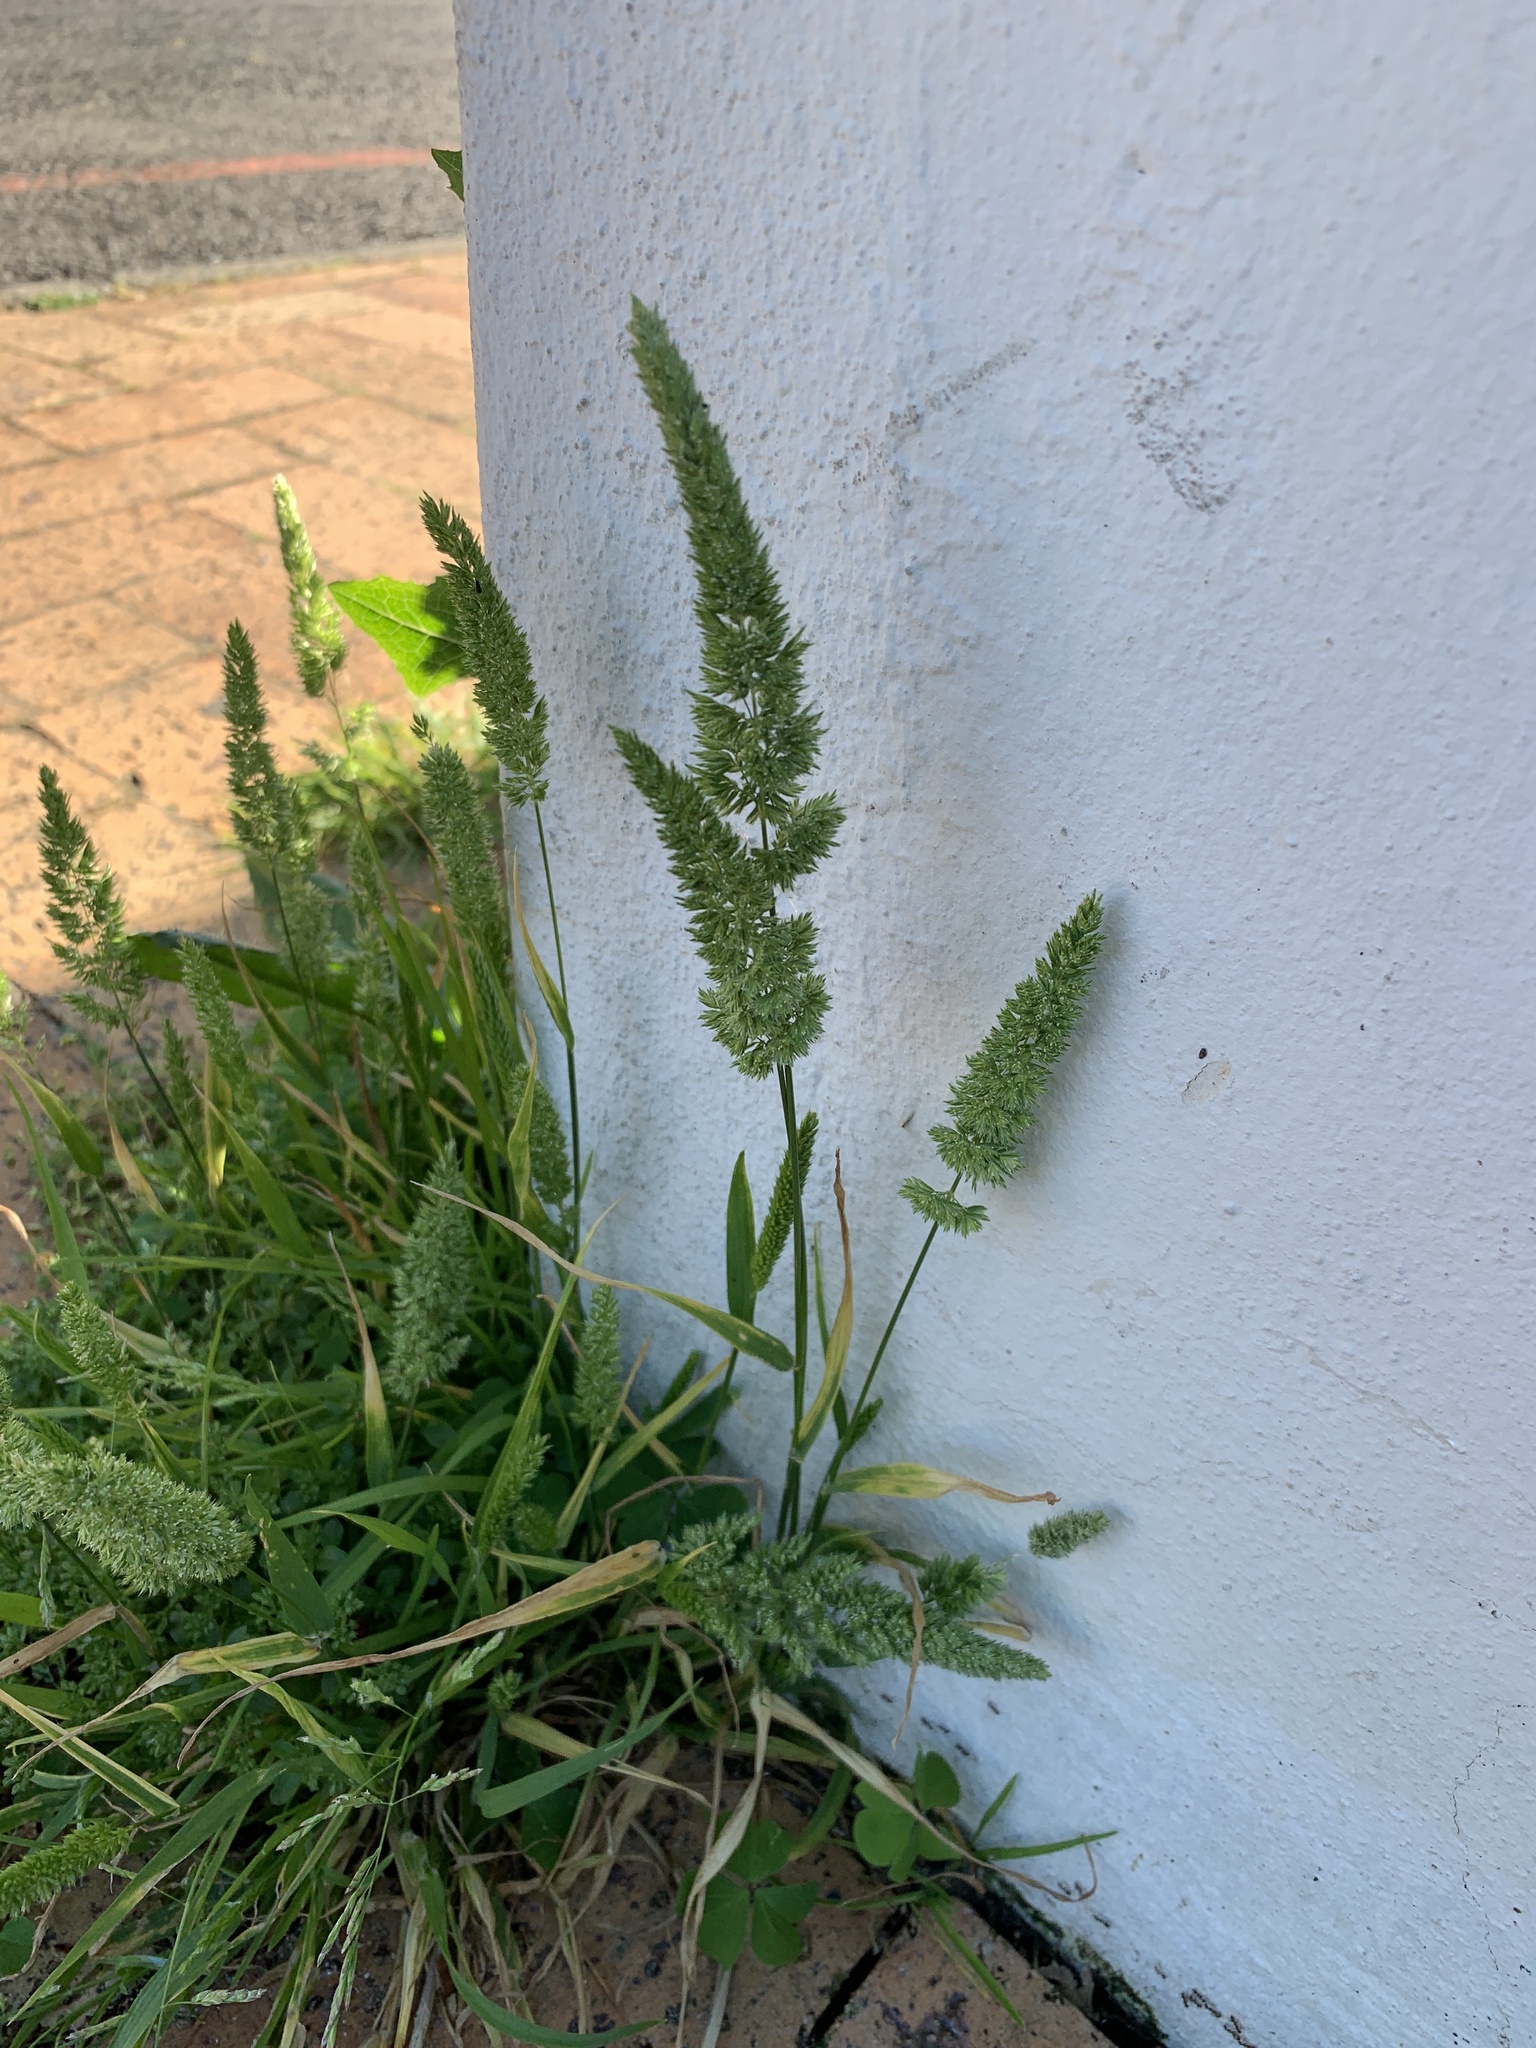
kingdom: Plantae
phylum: Tracheophyta
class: Liliopsida
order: Poales
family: Poaceae
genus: Rostraria
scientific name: Rostraria cristata
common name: Mediterranean hair-grass
